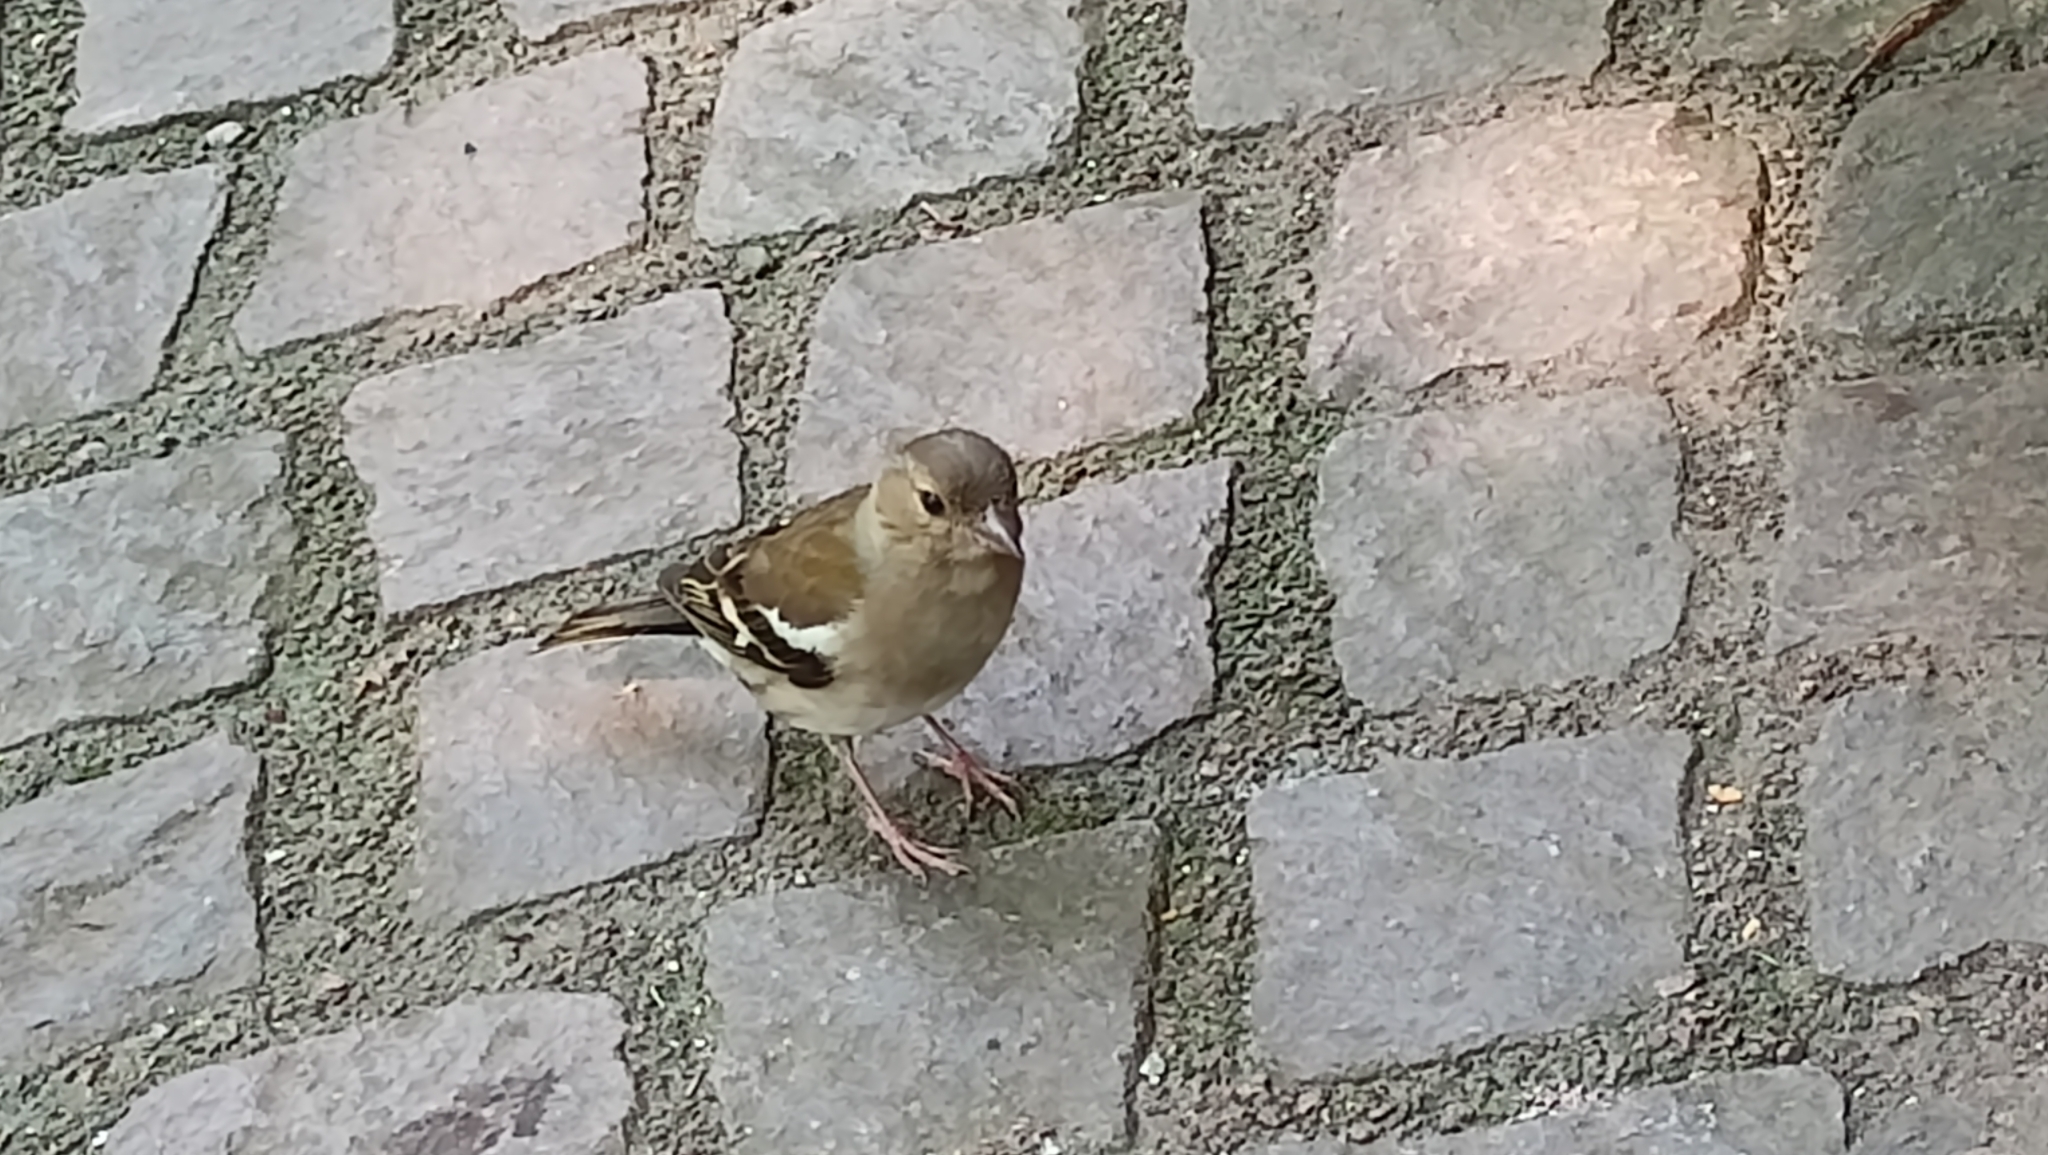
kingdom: Animalia
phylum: Chordata
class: Aves
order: Passeriformes
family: Fringillidae
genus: Fringilla
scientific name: Fringilla coelebs
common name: Common chaffinch
